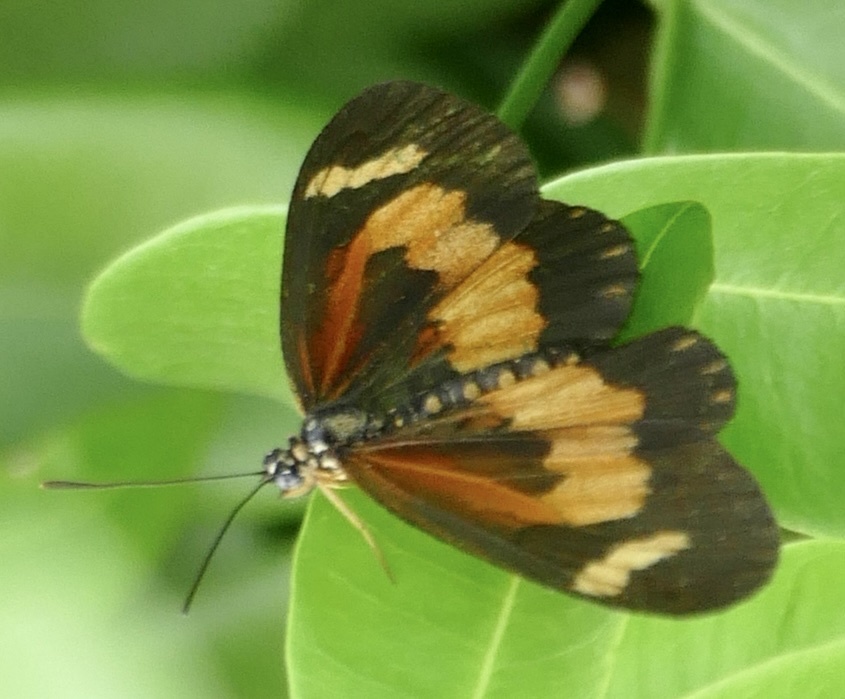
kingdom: Animalia
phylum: Arthropoda
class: Insecta
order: Lepidoptera
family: Nymphalidae
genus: Acraea
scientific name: Acraea
